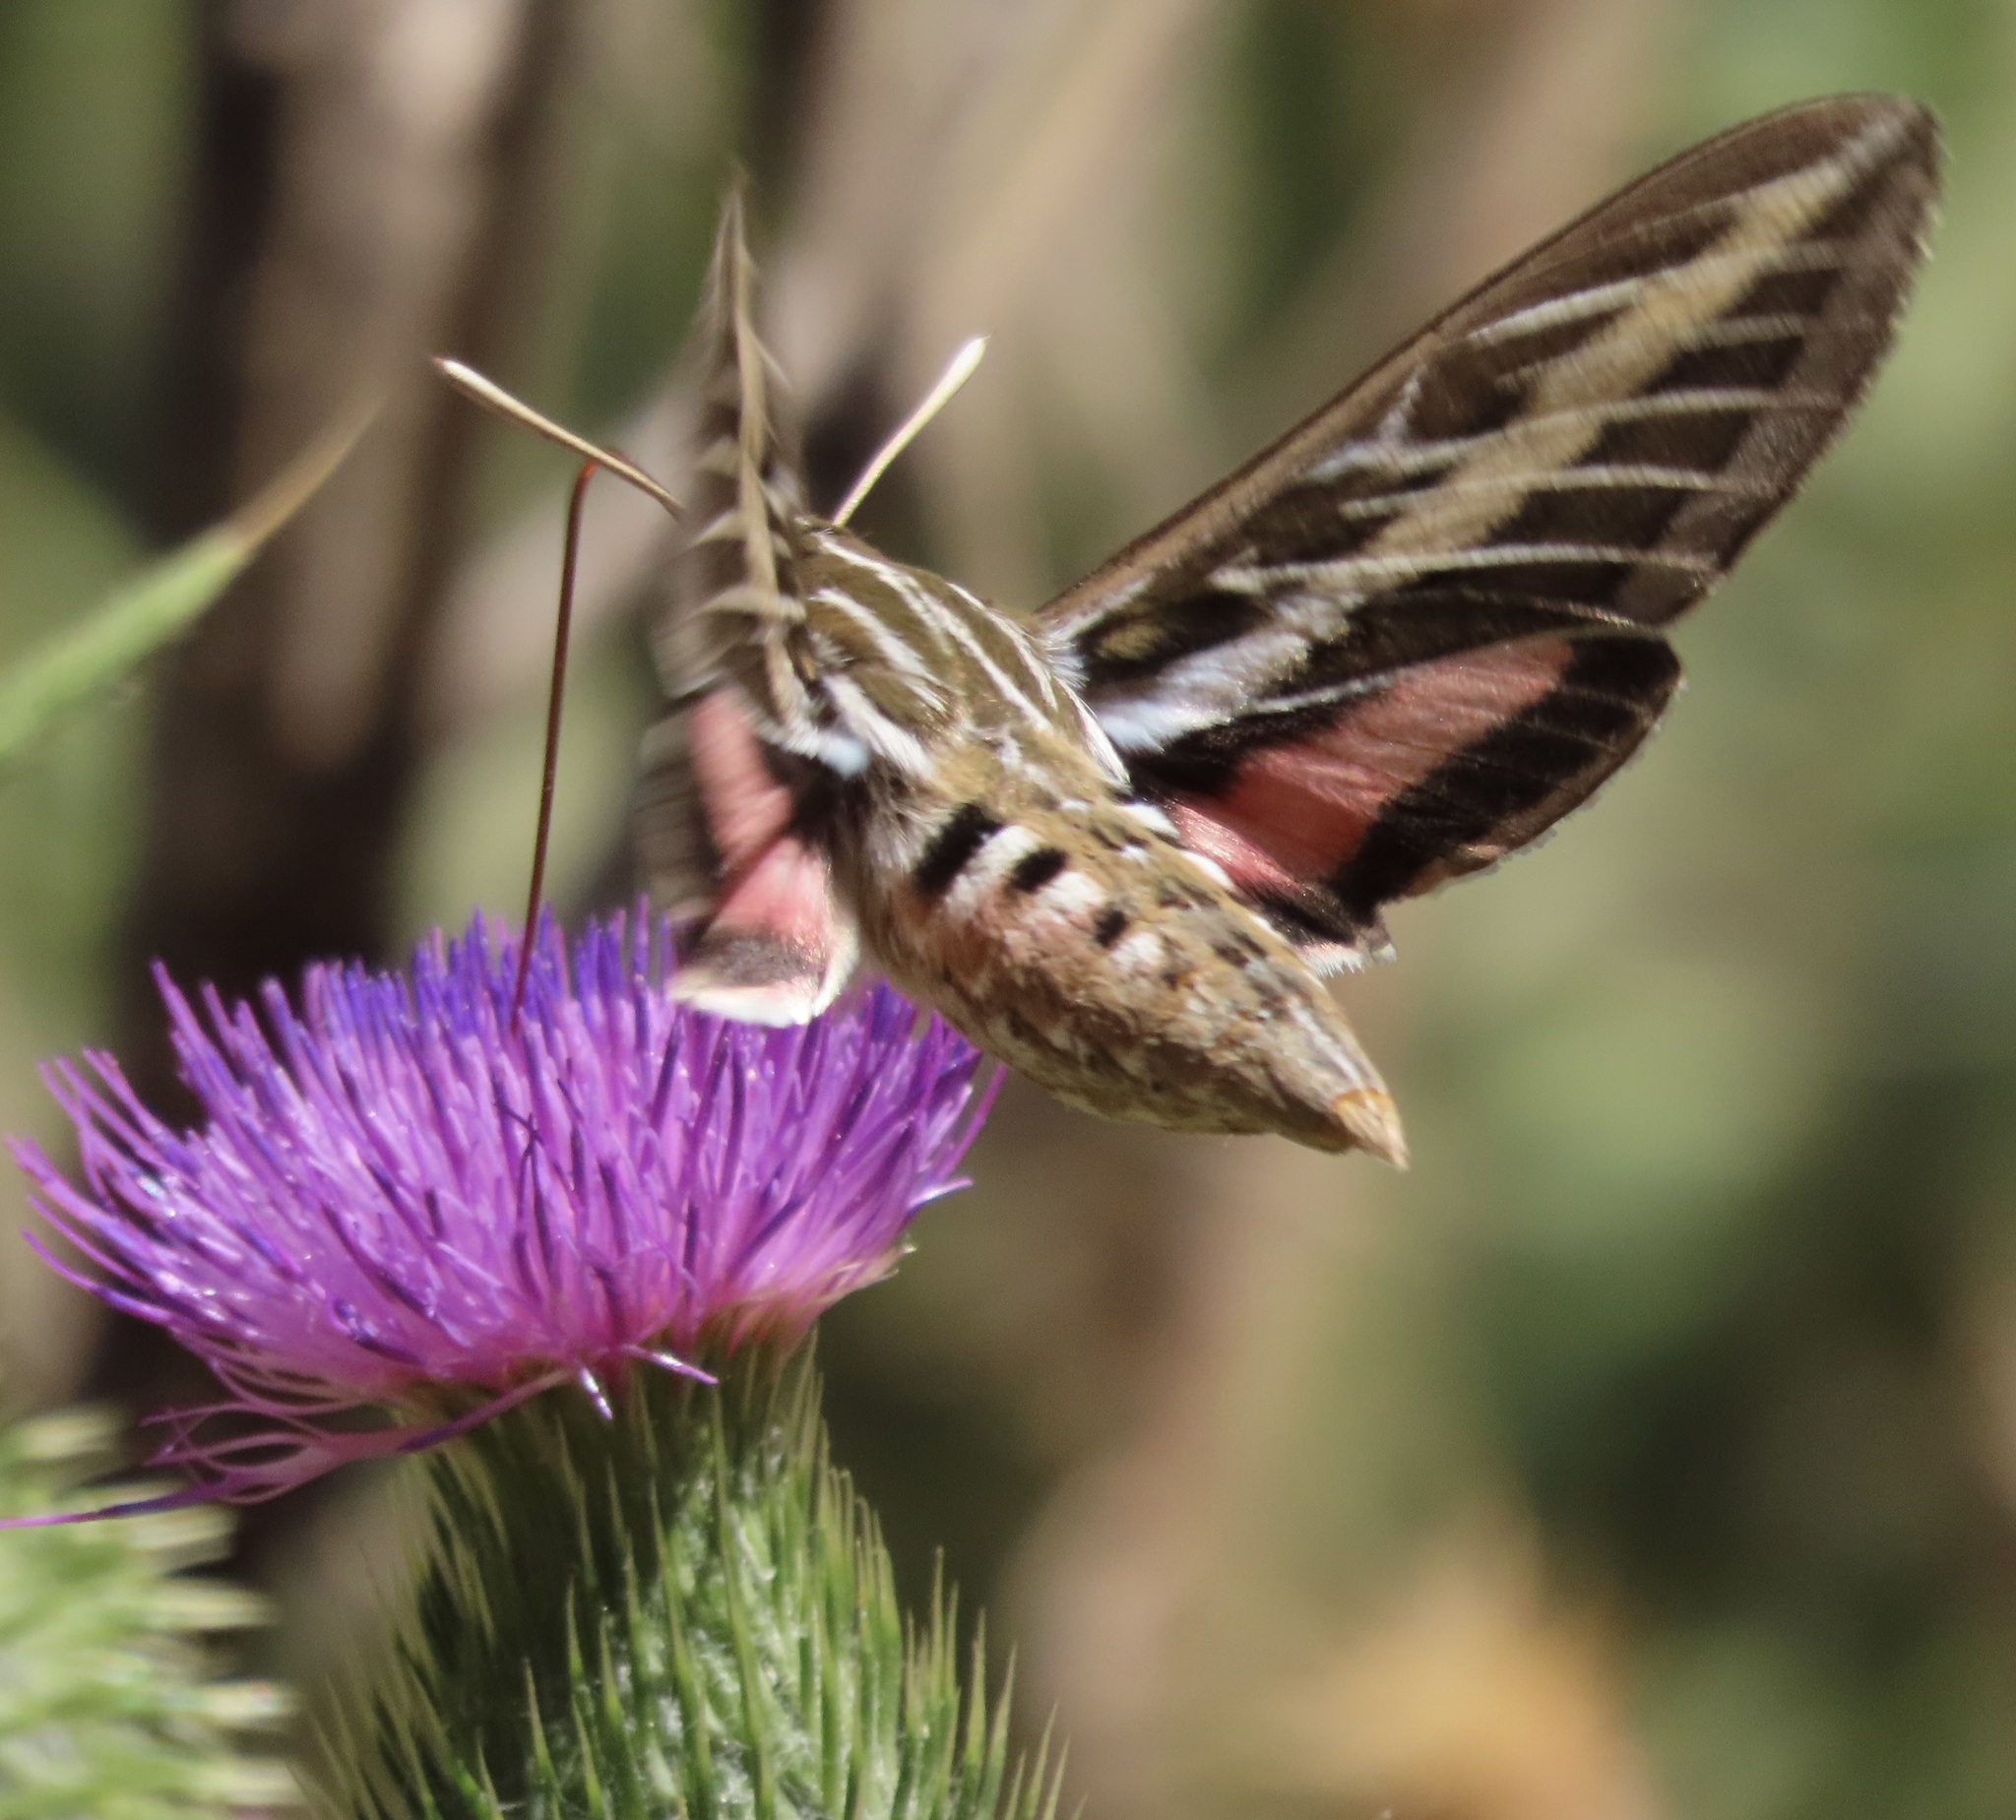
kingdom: Animalia
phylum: Arthropoda
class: Insecta
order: Lepidoptera
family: Sphingidae
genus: Hyles
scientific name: Hyles lineata
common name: White-lined sphinx
